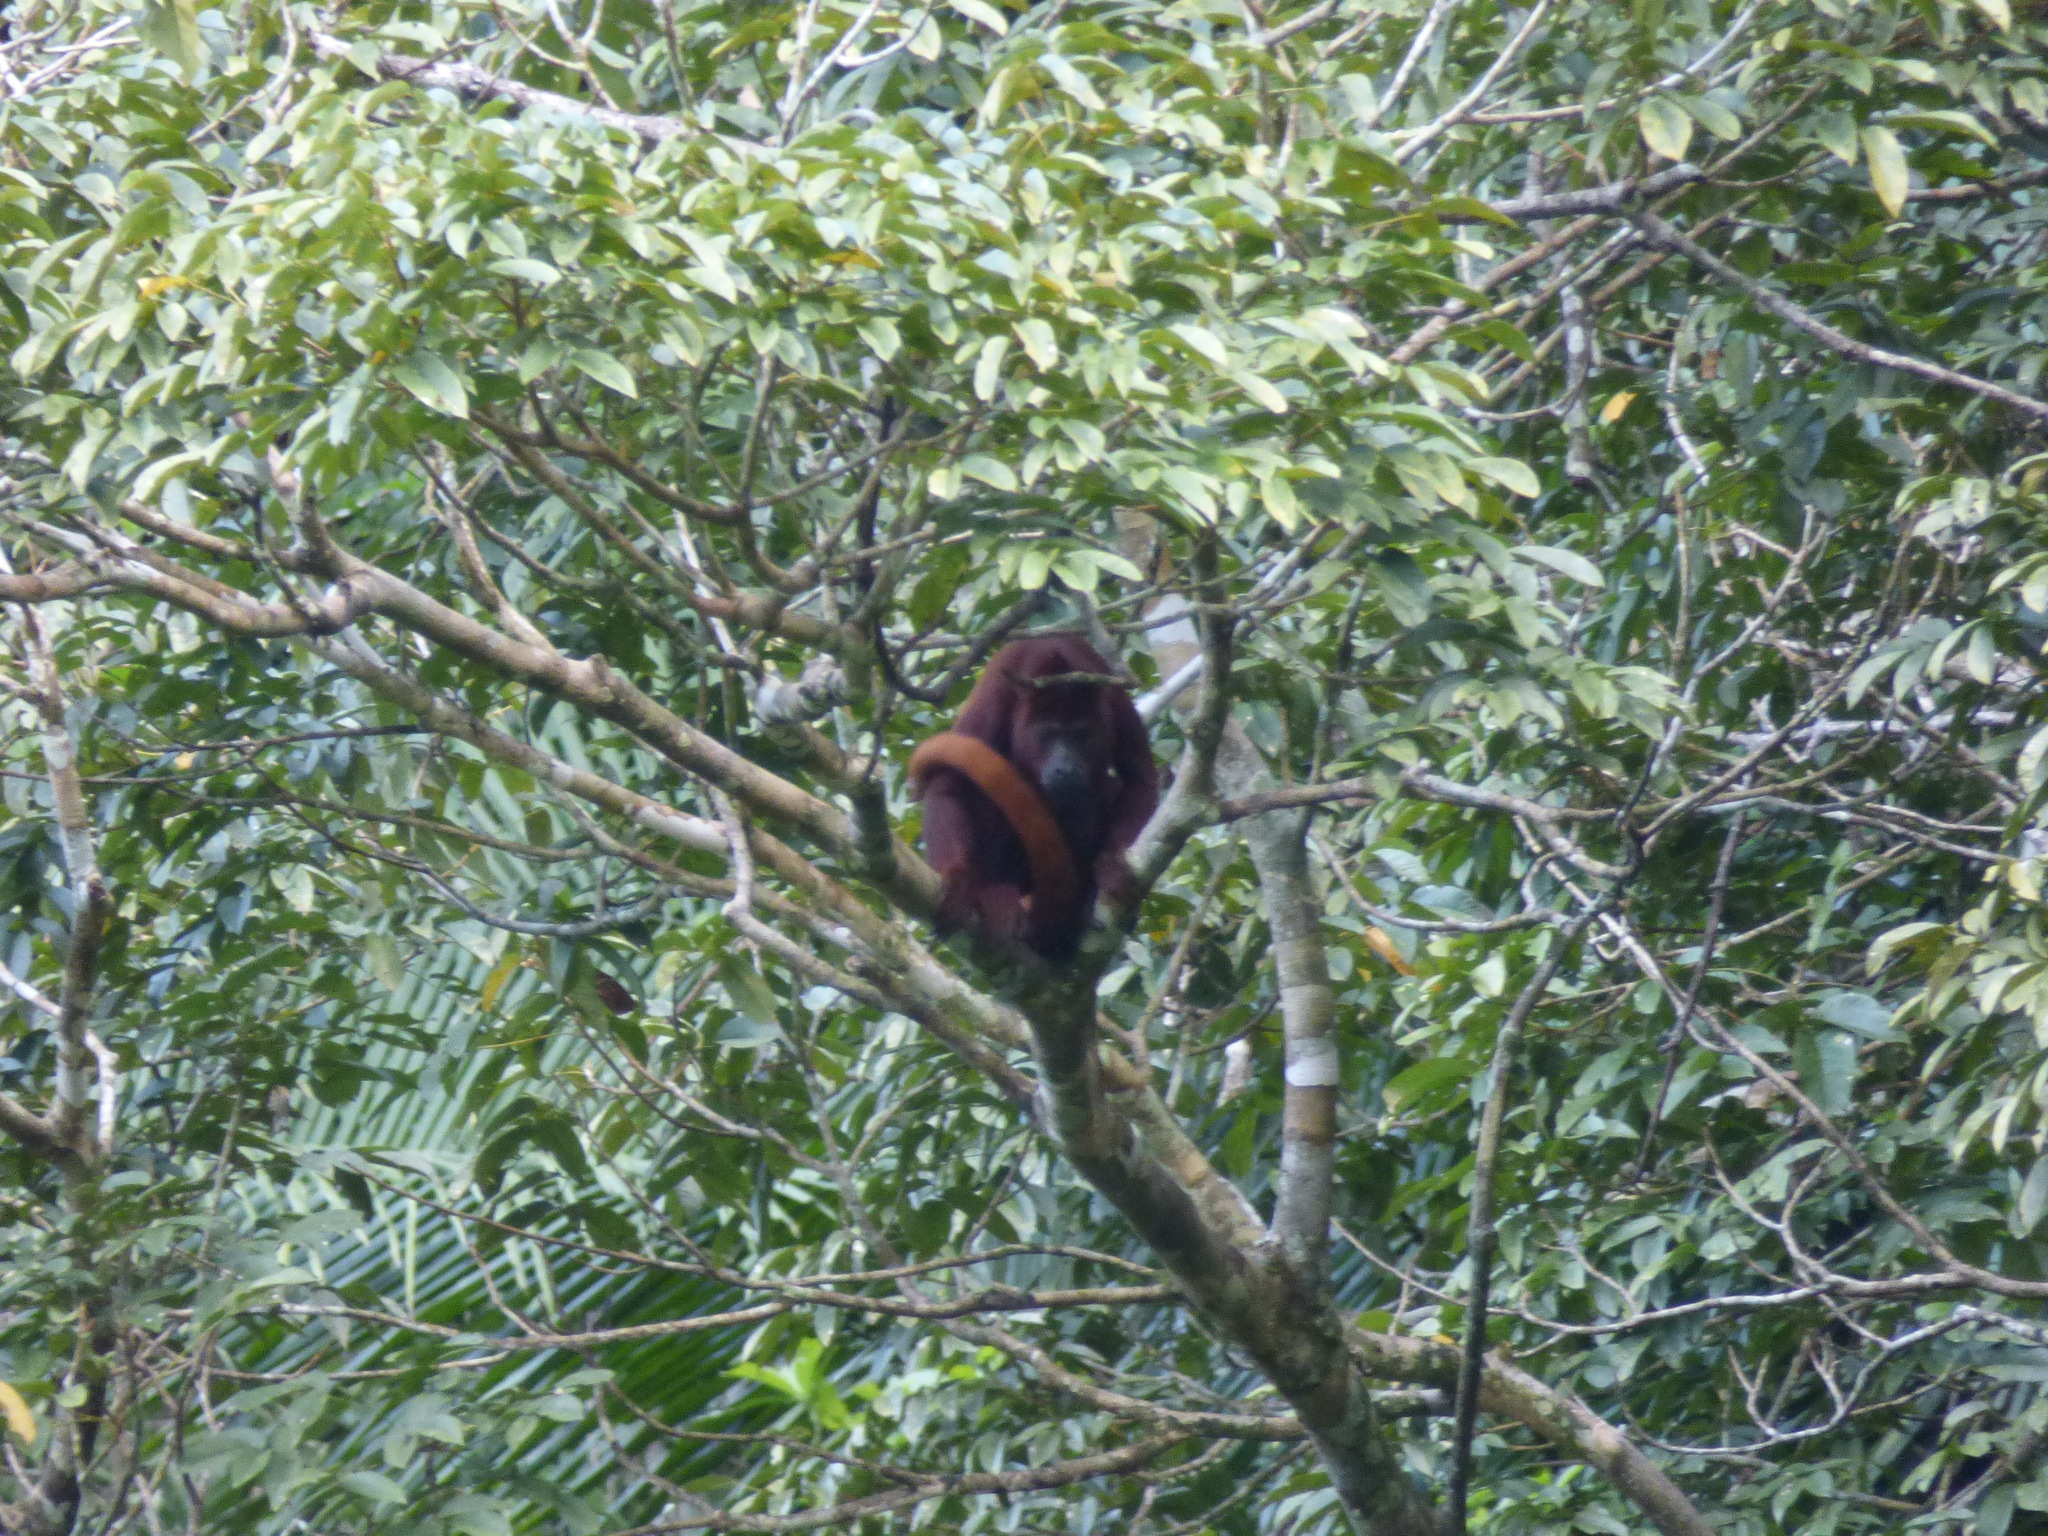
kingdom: Animalia
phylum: Chordata
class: Mammalia
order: Primates
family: Atelidae
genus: Alouatta
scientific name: Alouatta seniculus
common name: Venezuelan red howler
